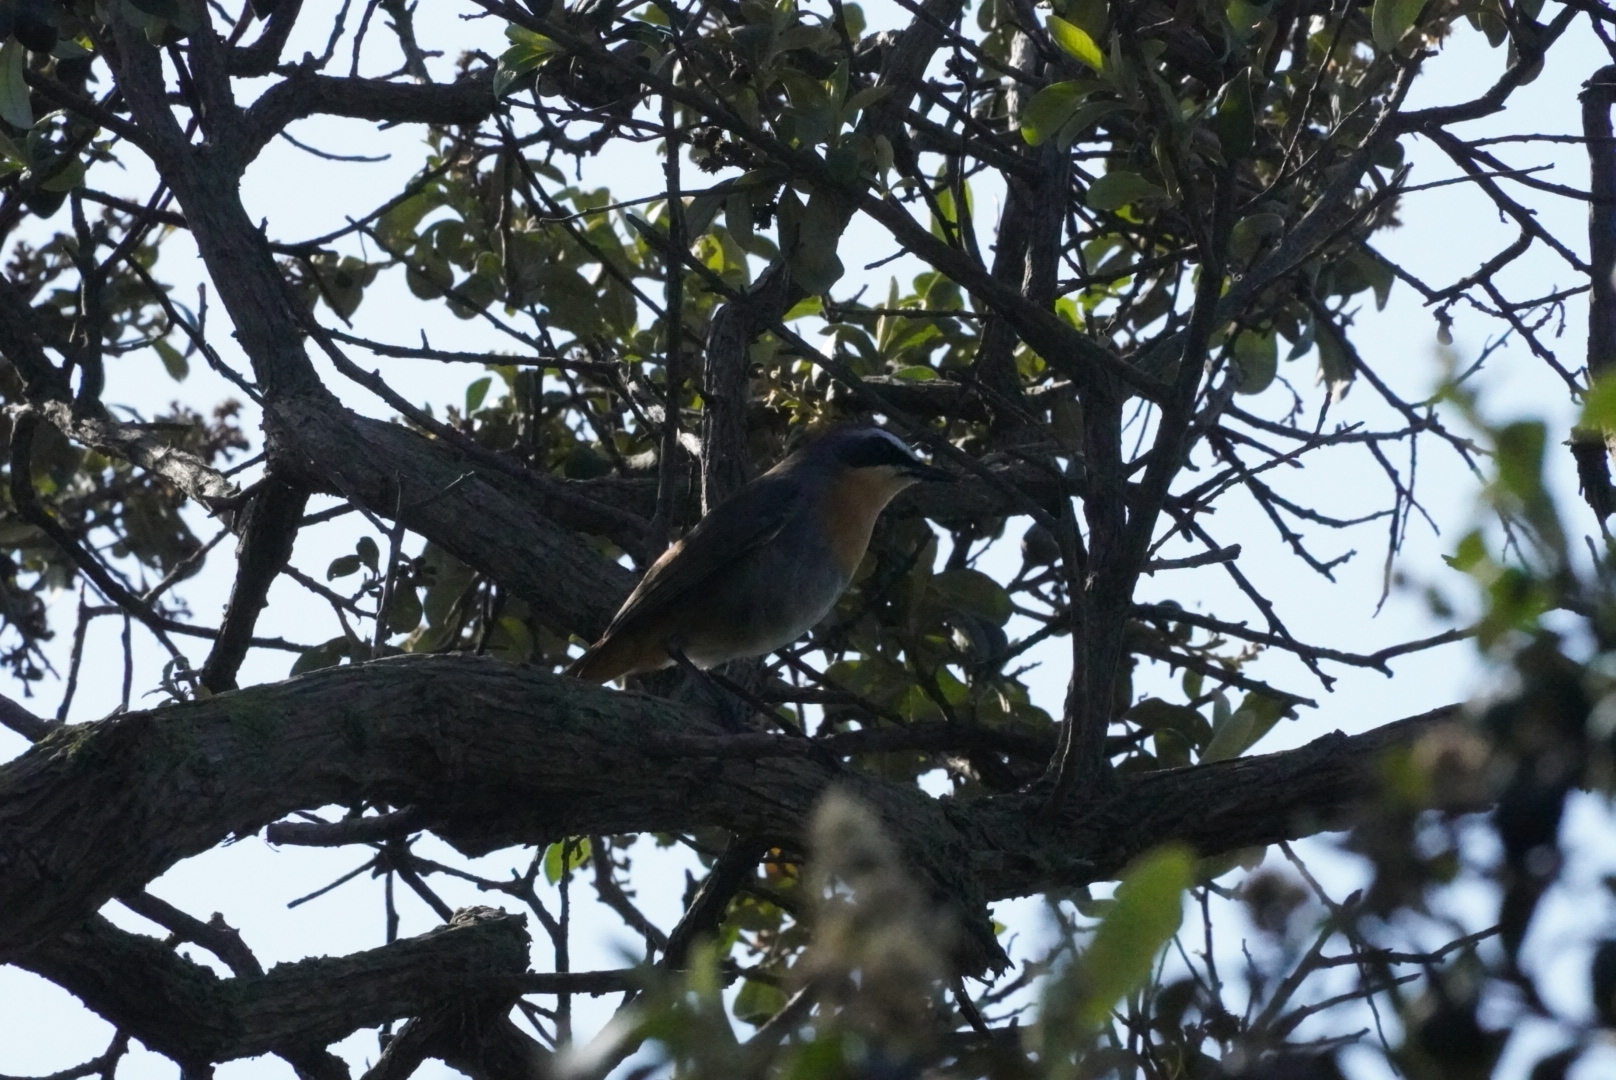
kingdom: Animalia
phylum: Chordata
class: Aves
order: Passeriformes
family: Muscicapidae
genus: Cossypha
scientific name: Cossypha caffra
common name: Cape robin-chat
